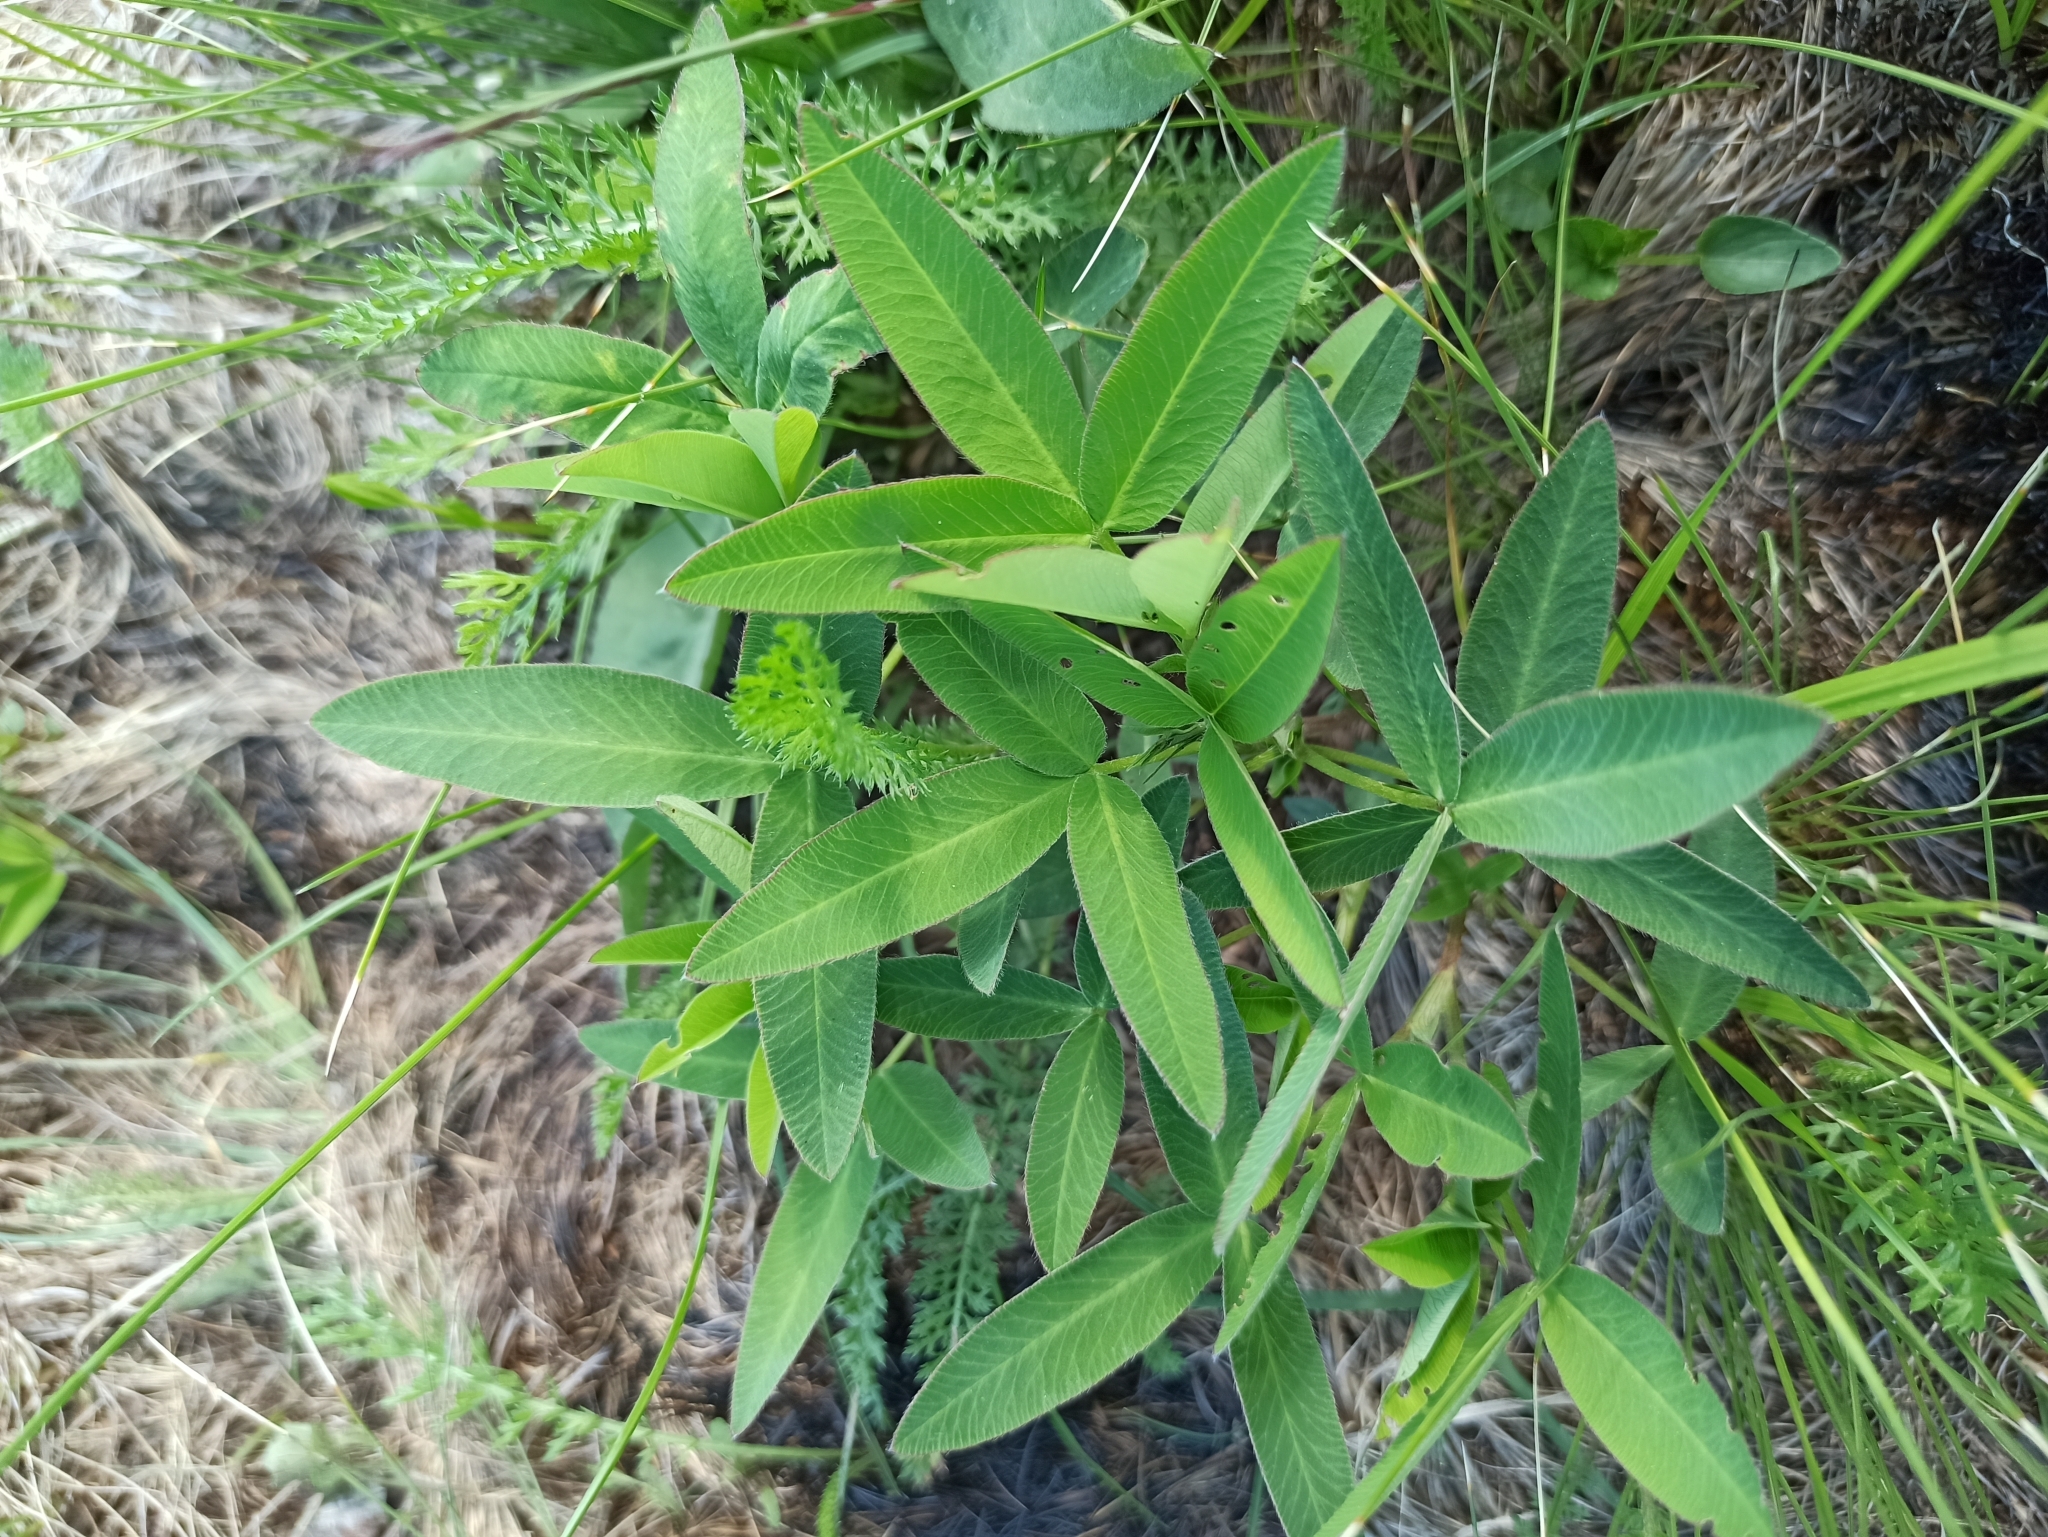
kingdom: Plantae
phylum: Tracheophyta
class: Magnoliopsida
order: Fabales
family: Fabaceae
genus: Trifolium
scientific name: Trifolium medium
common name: Zigzag clover
